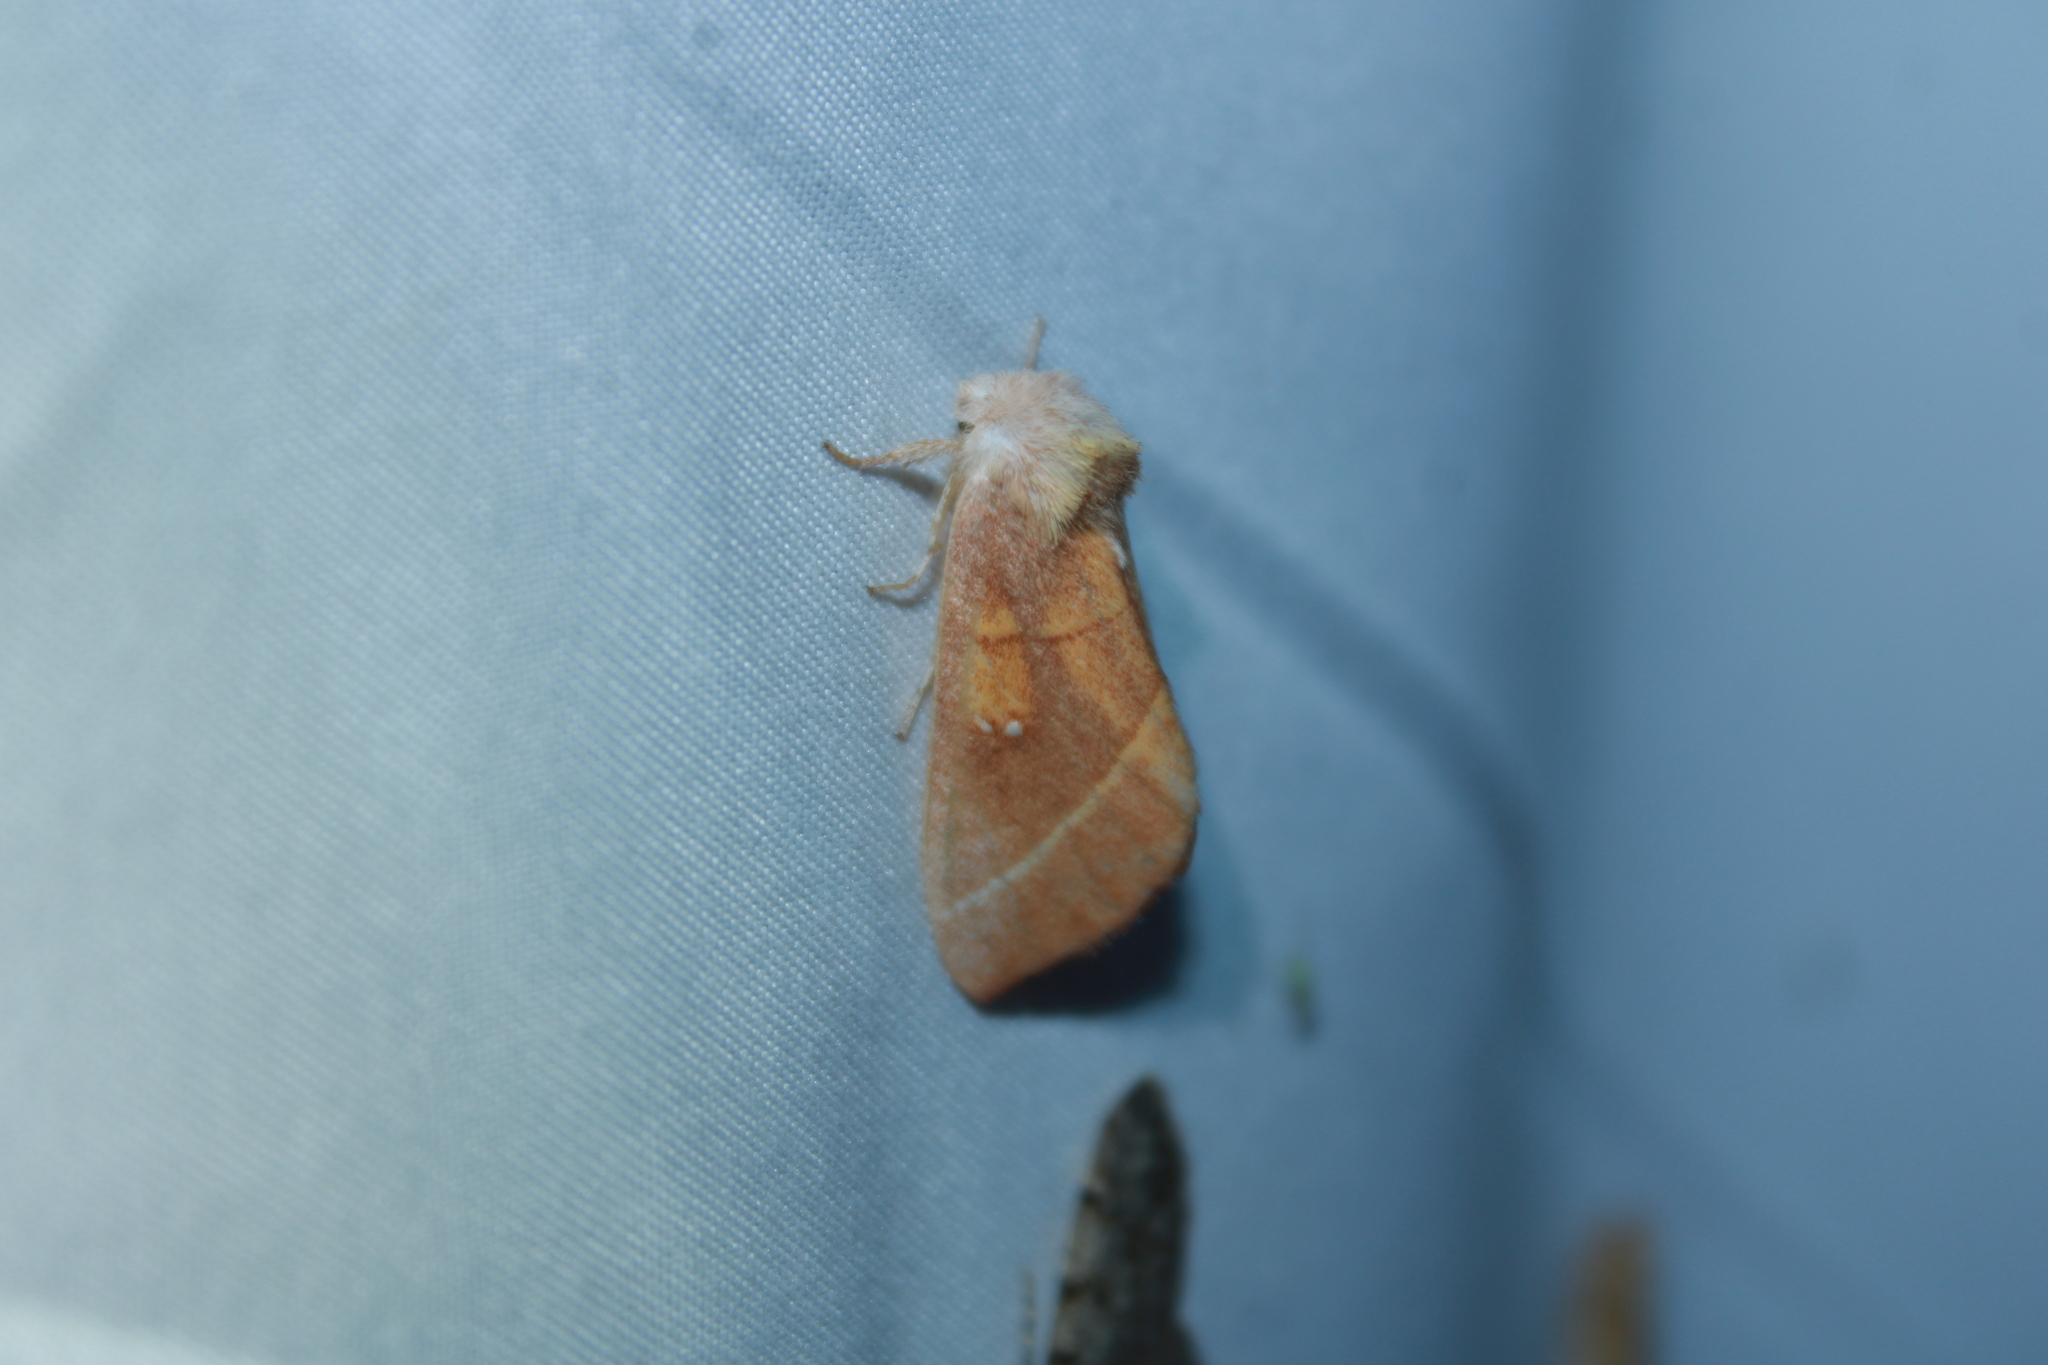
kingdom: Animalia
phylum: Arthropoda
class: Insecta
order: Lepidoptera
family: Notodontidae
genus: Nadata
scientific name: Nadata gibbosa
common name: White-dotted prominent
